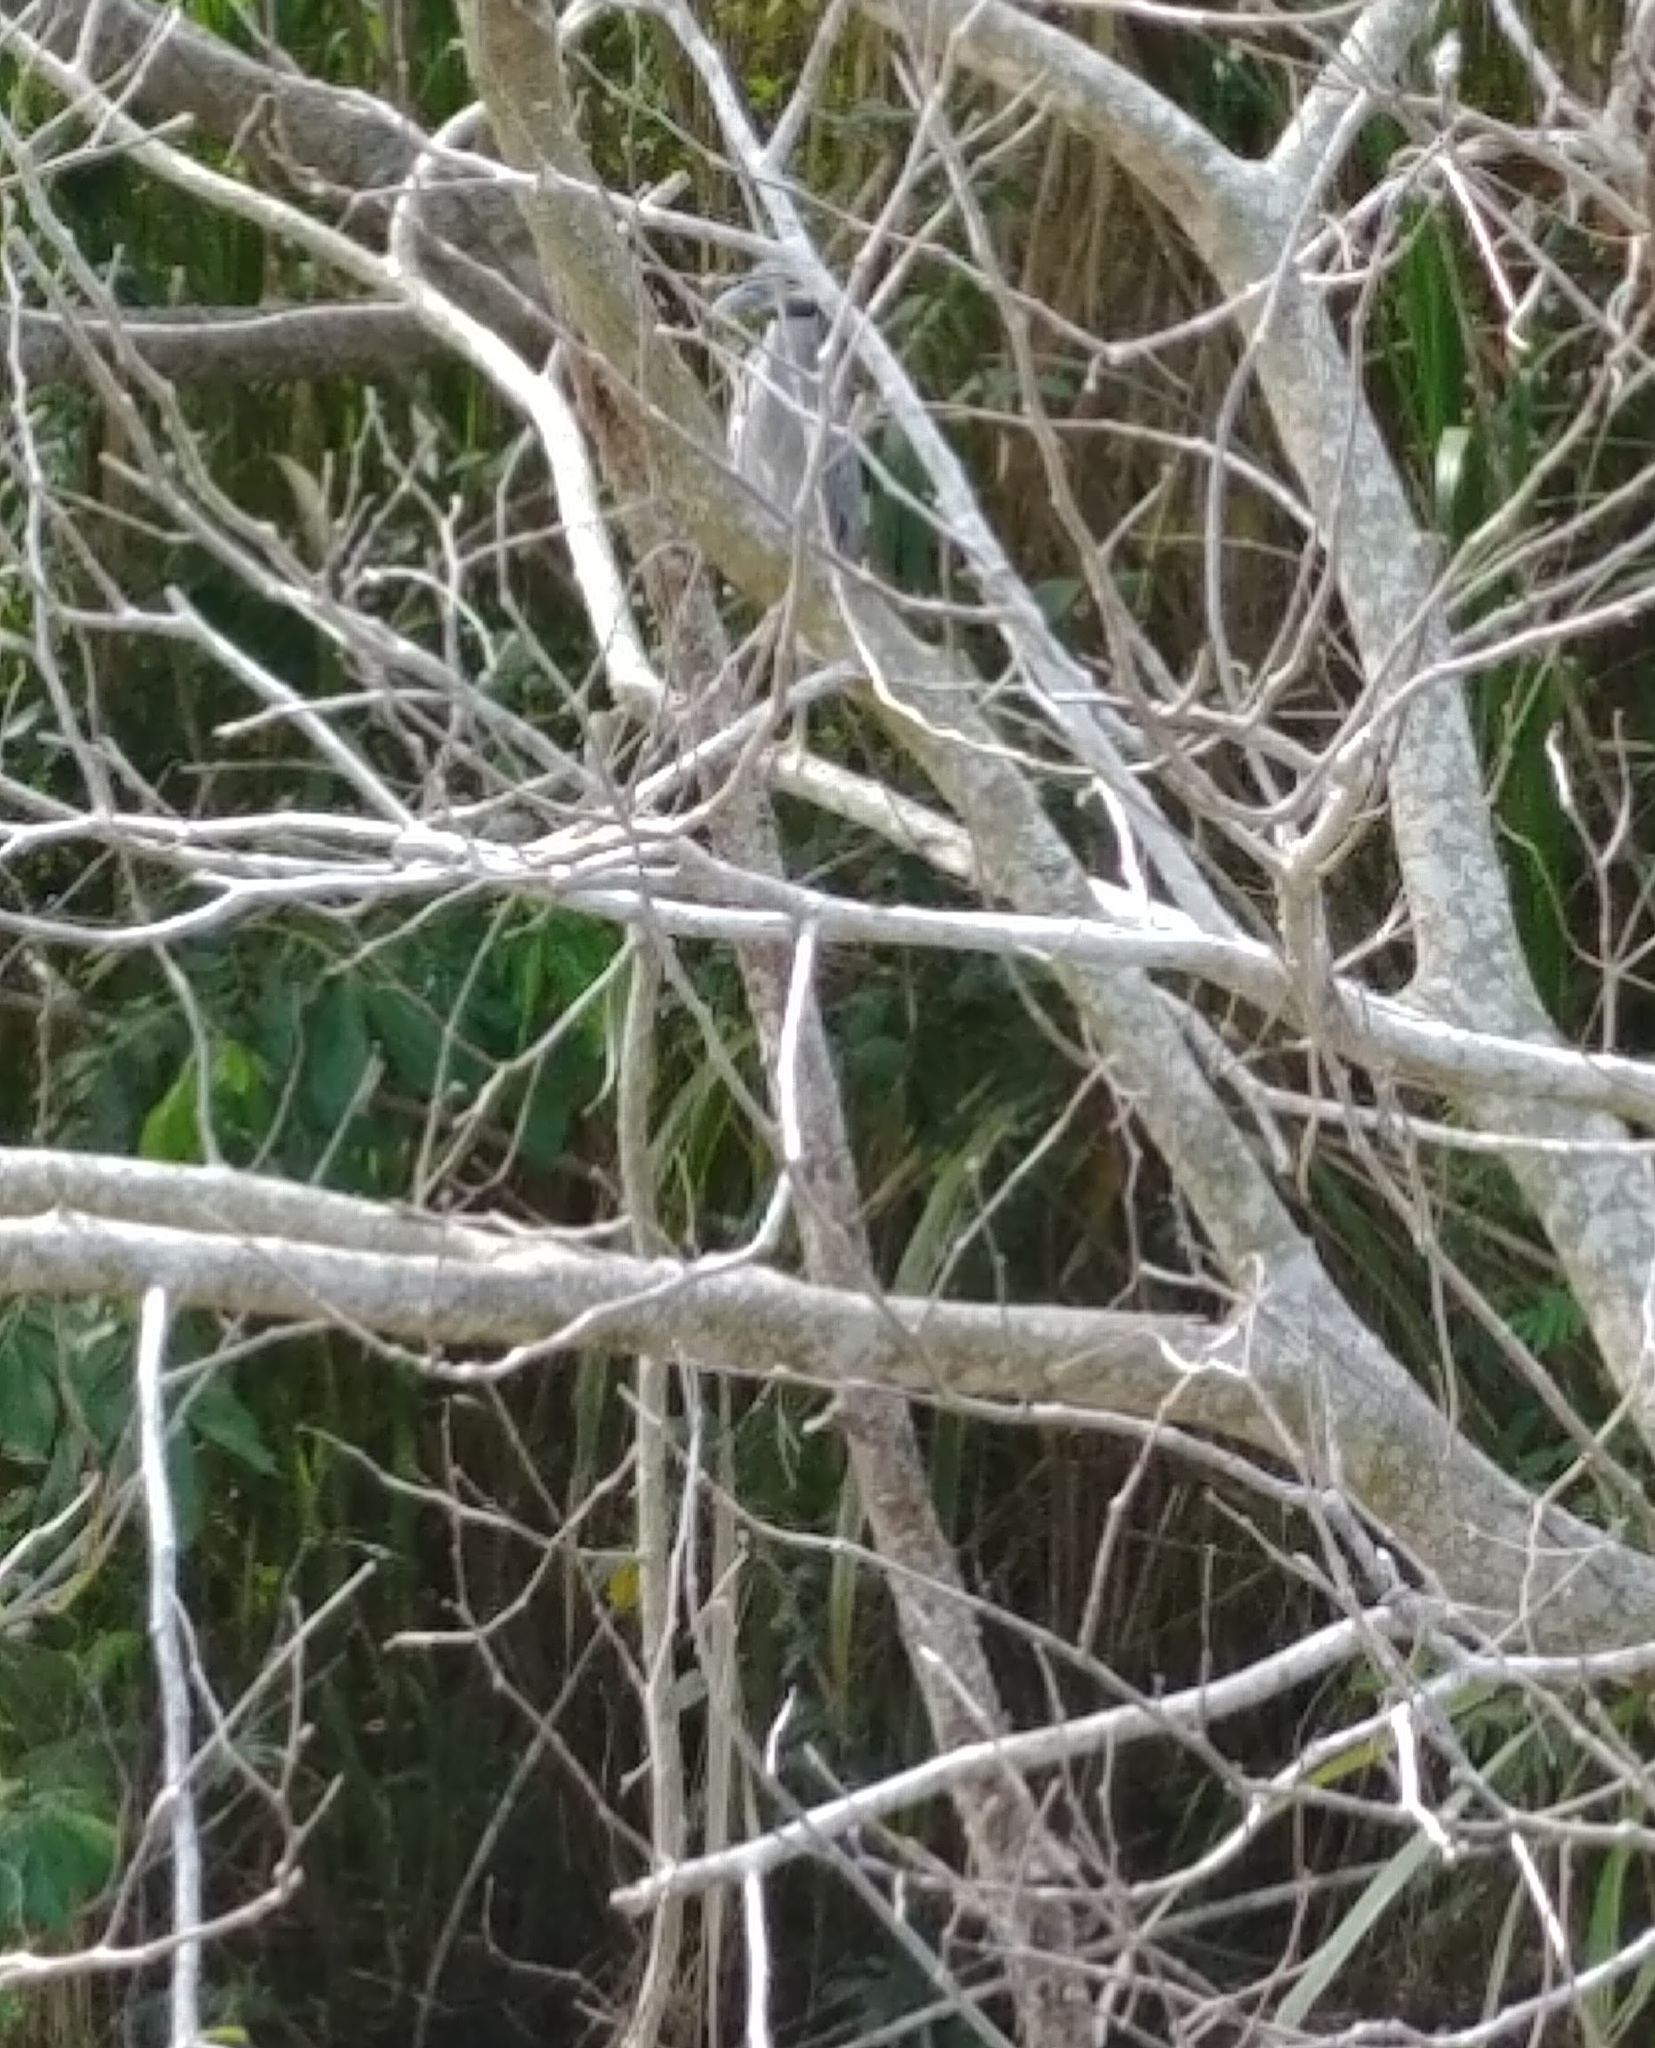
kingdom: Animalia
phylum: Chordata
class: Aves
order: Pelecaniformes
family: Ardeidae
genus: Nyctanassa
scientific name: Nyctanassa violacea
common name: Yellow-crowned night heron
